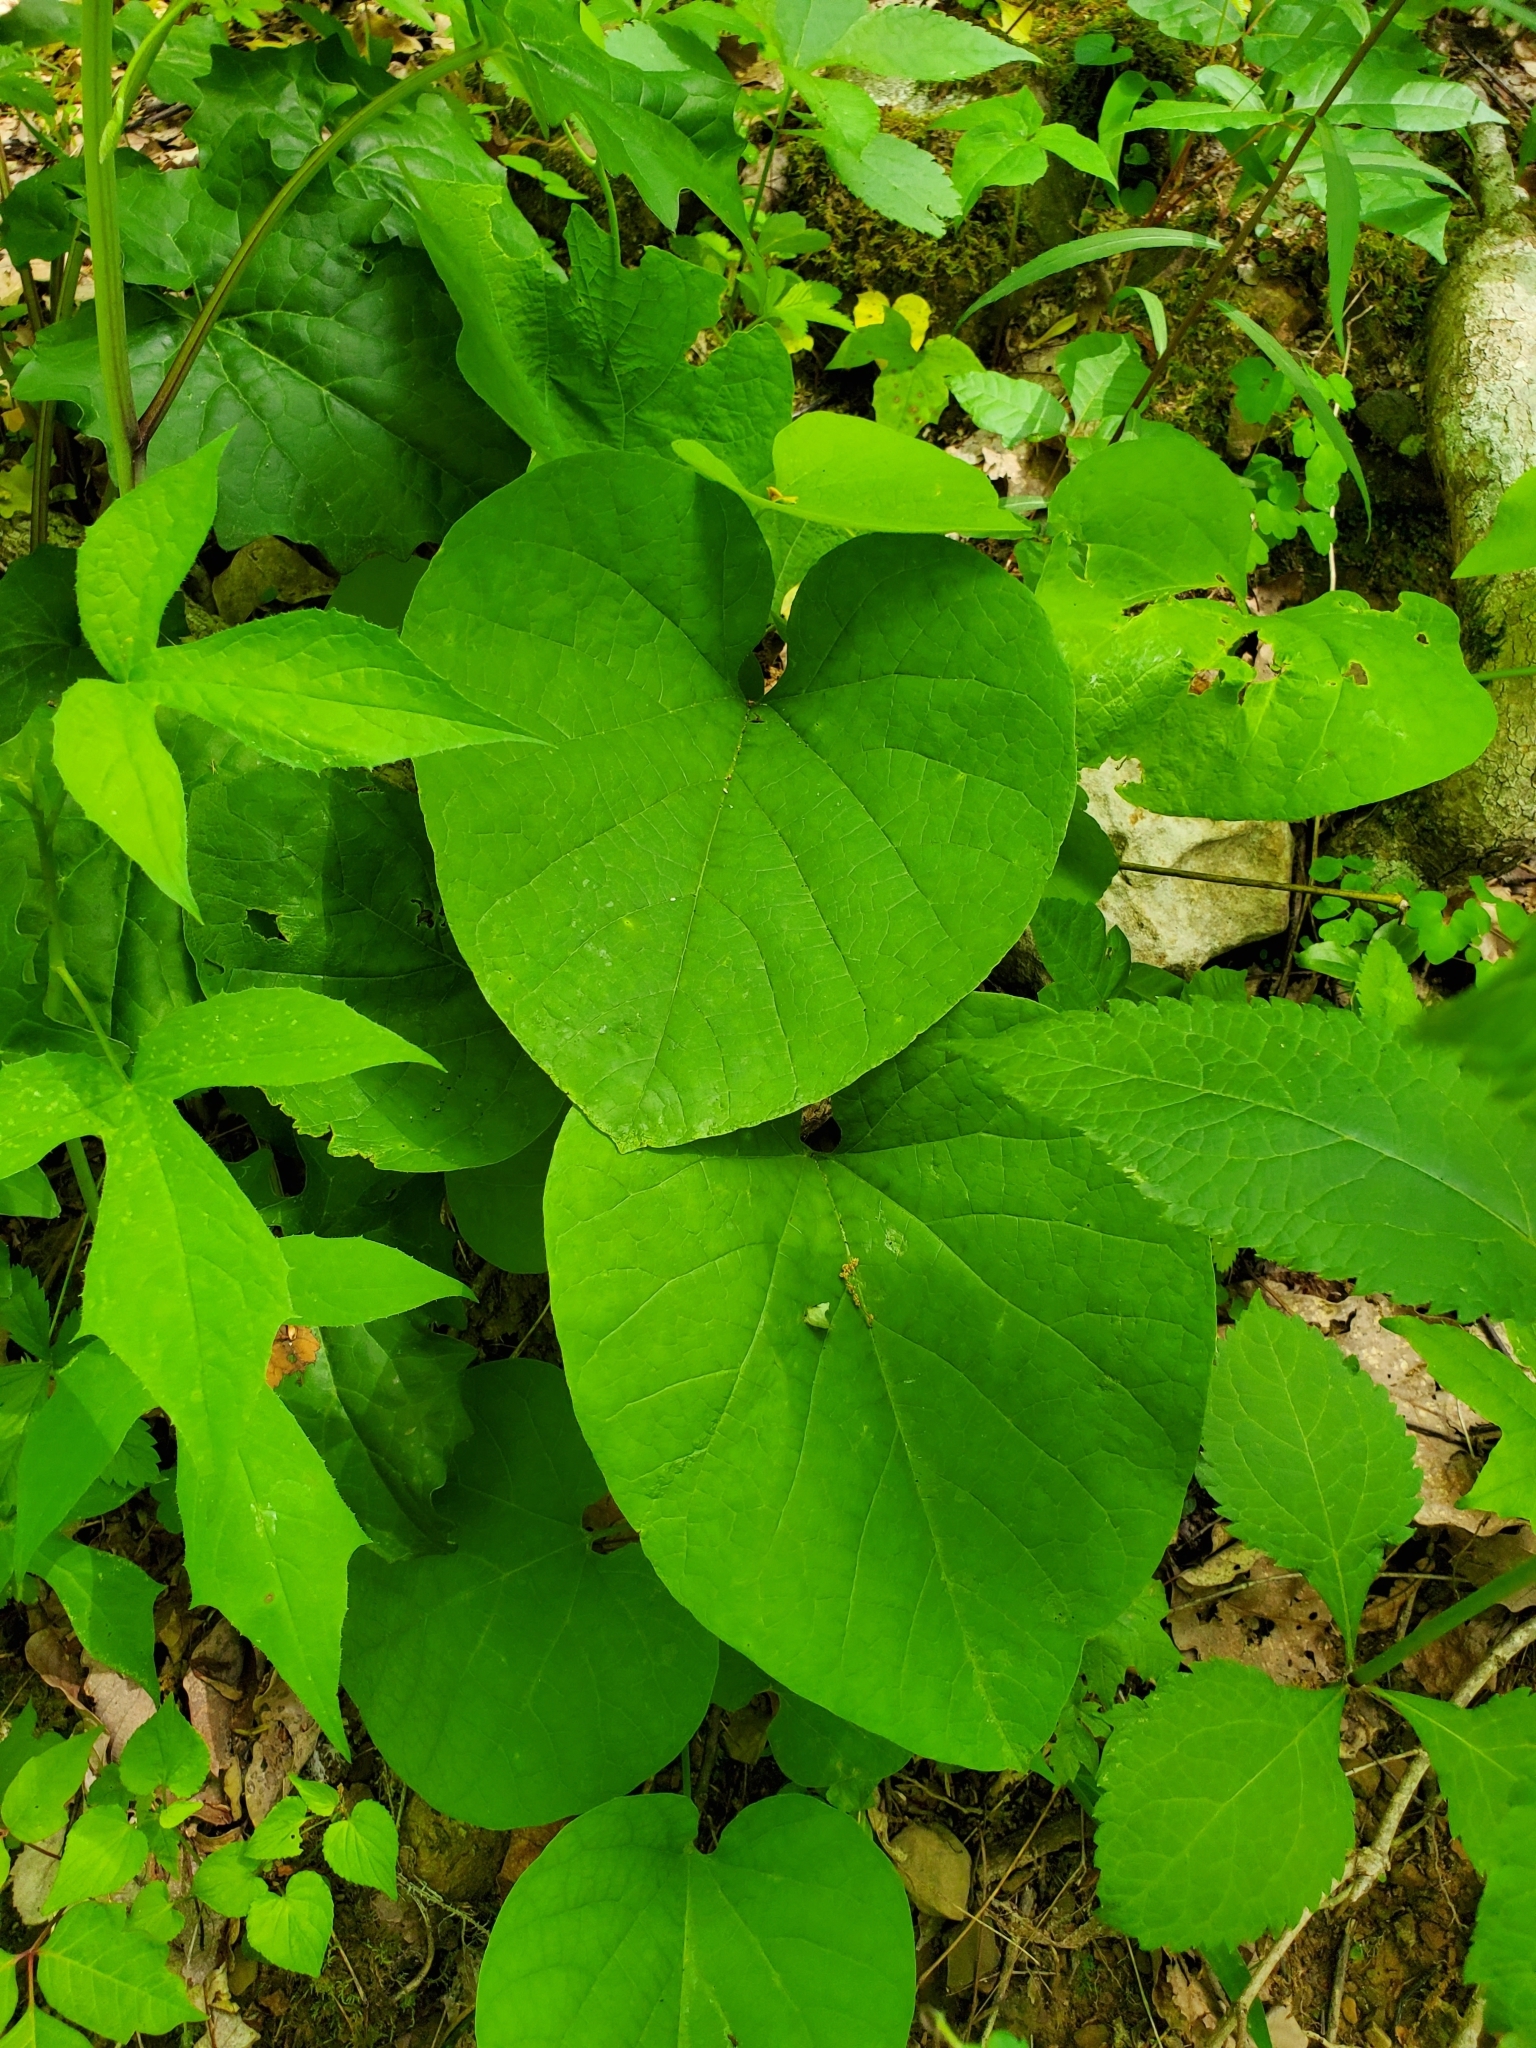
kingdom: Plantae
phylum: Tracheophyta
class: Magnoliopsida
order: Piperales
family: Aristolochiaceae
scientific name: Aristolochiaceae
